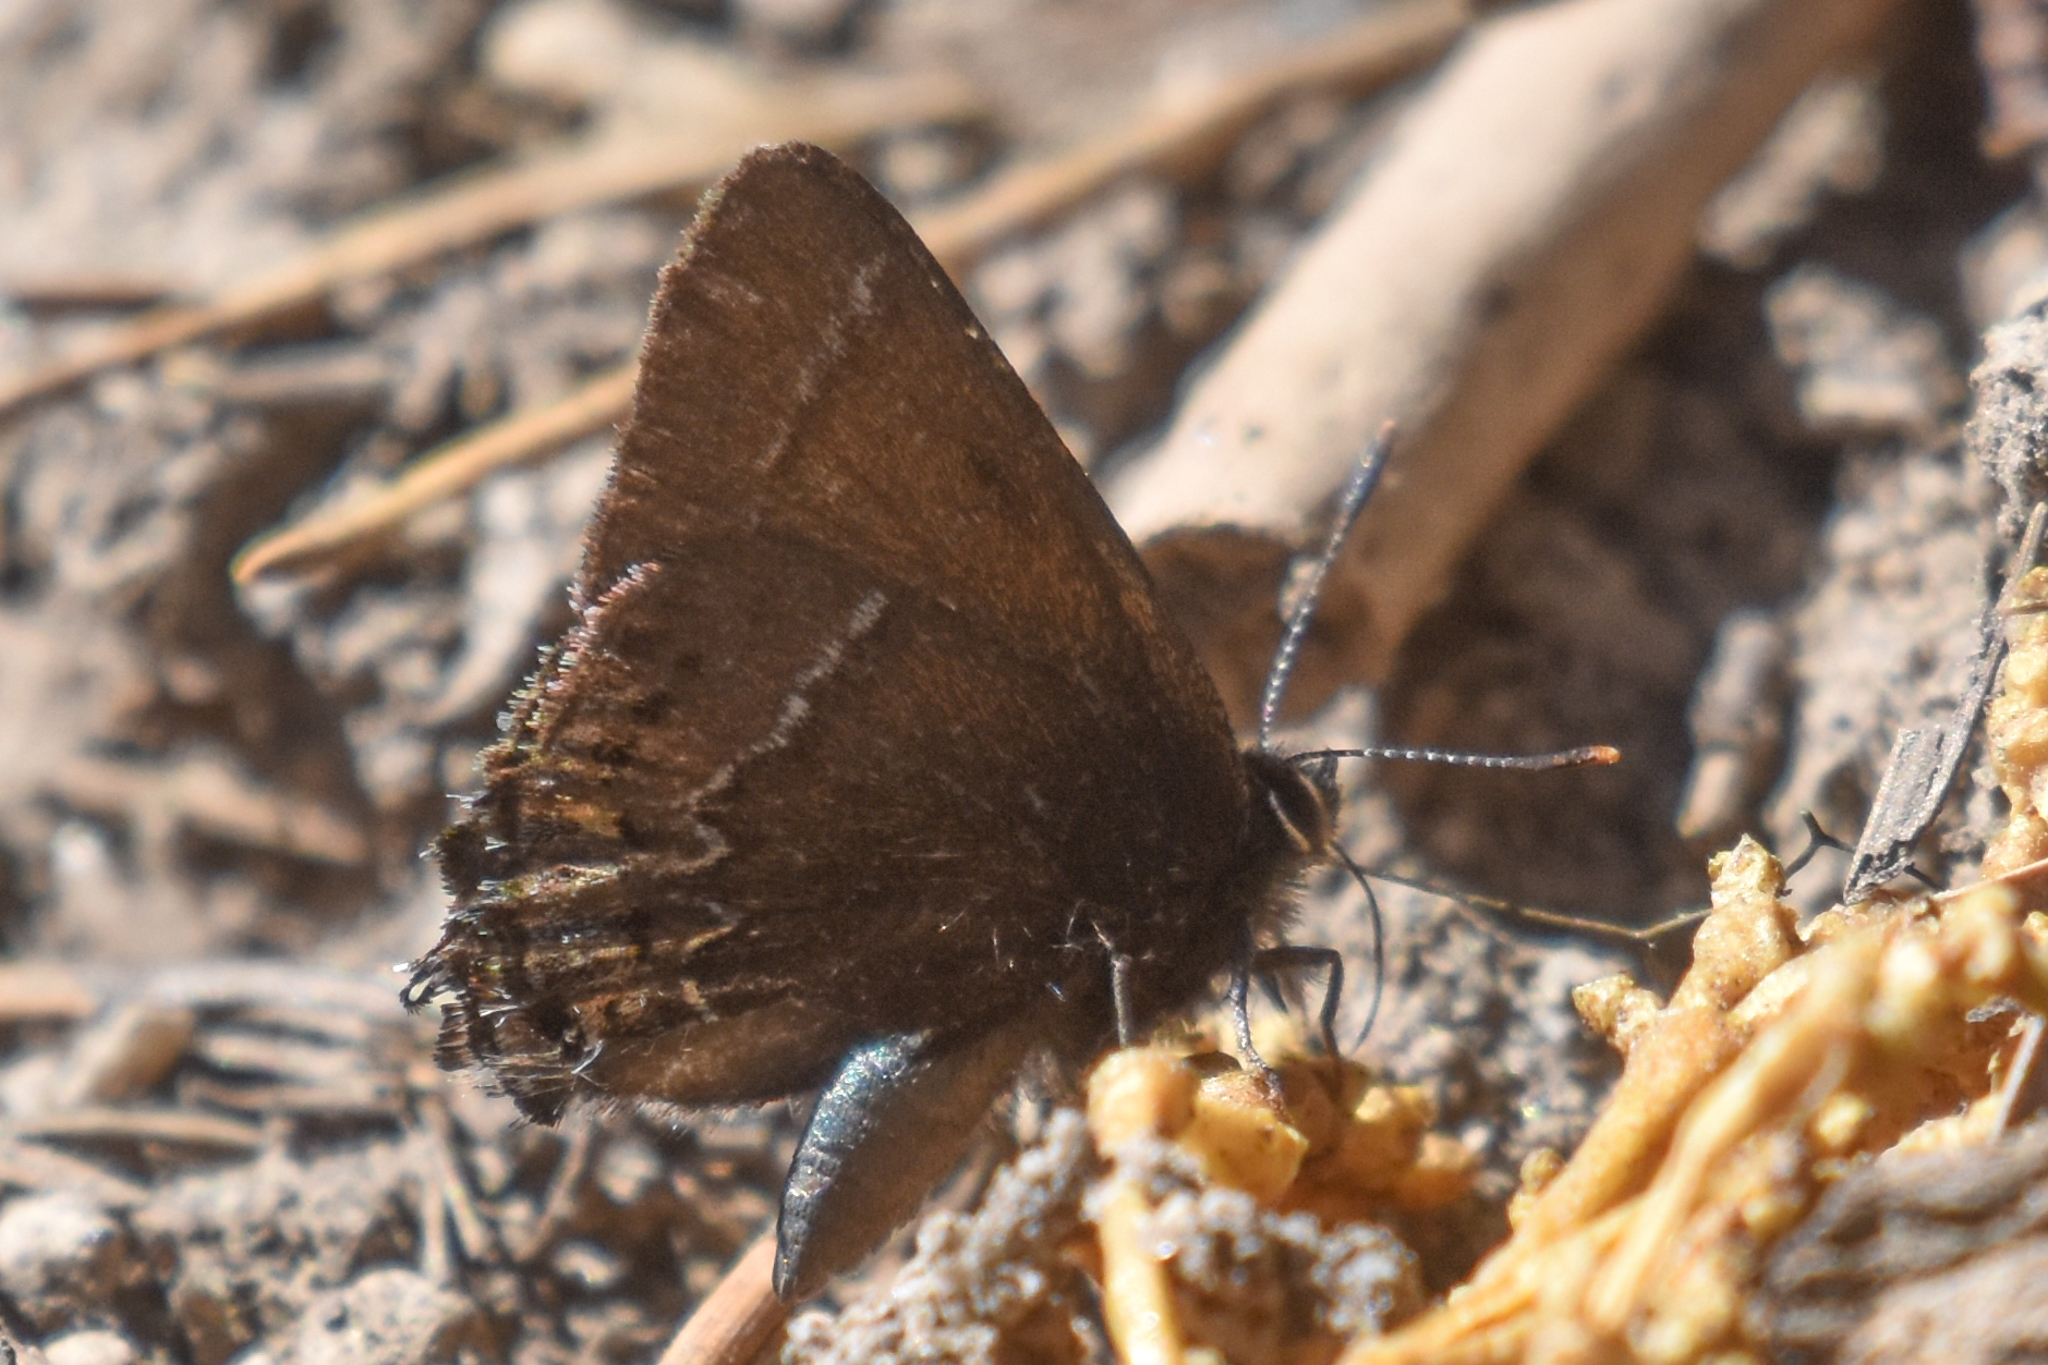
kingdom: Animalia
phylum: Arthropoda
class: Insecta
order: Lepidoptera
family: Lycaenidae
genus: Mitoura
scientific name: Mitoura spinetorum
